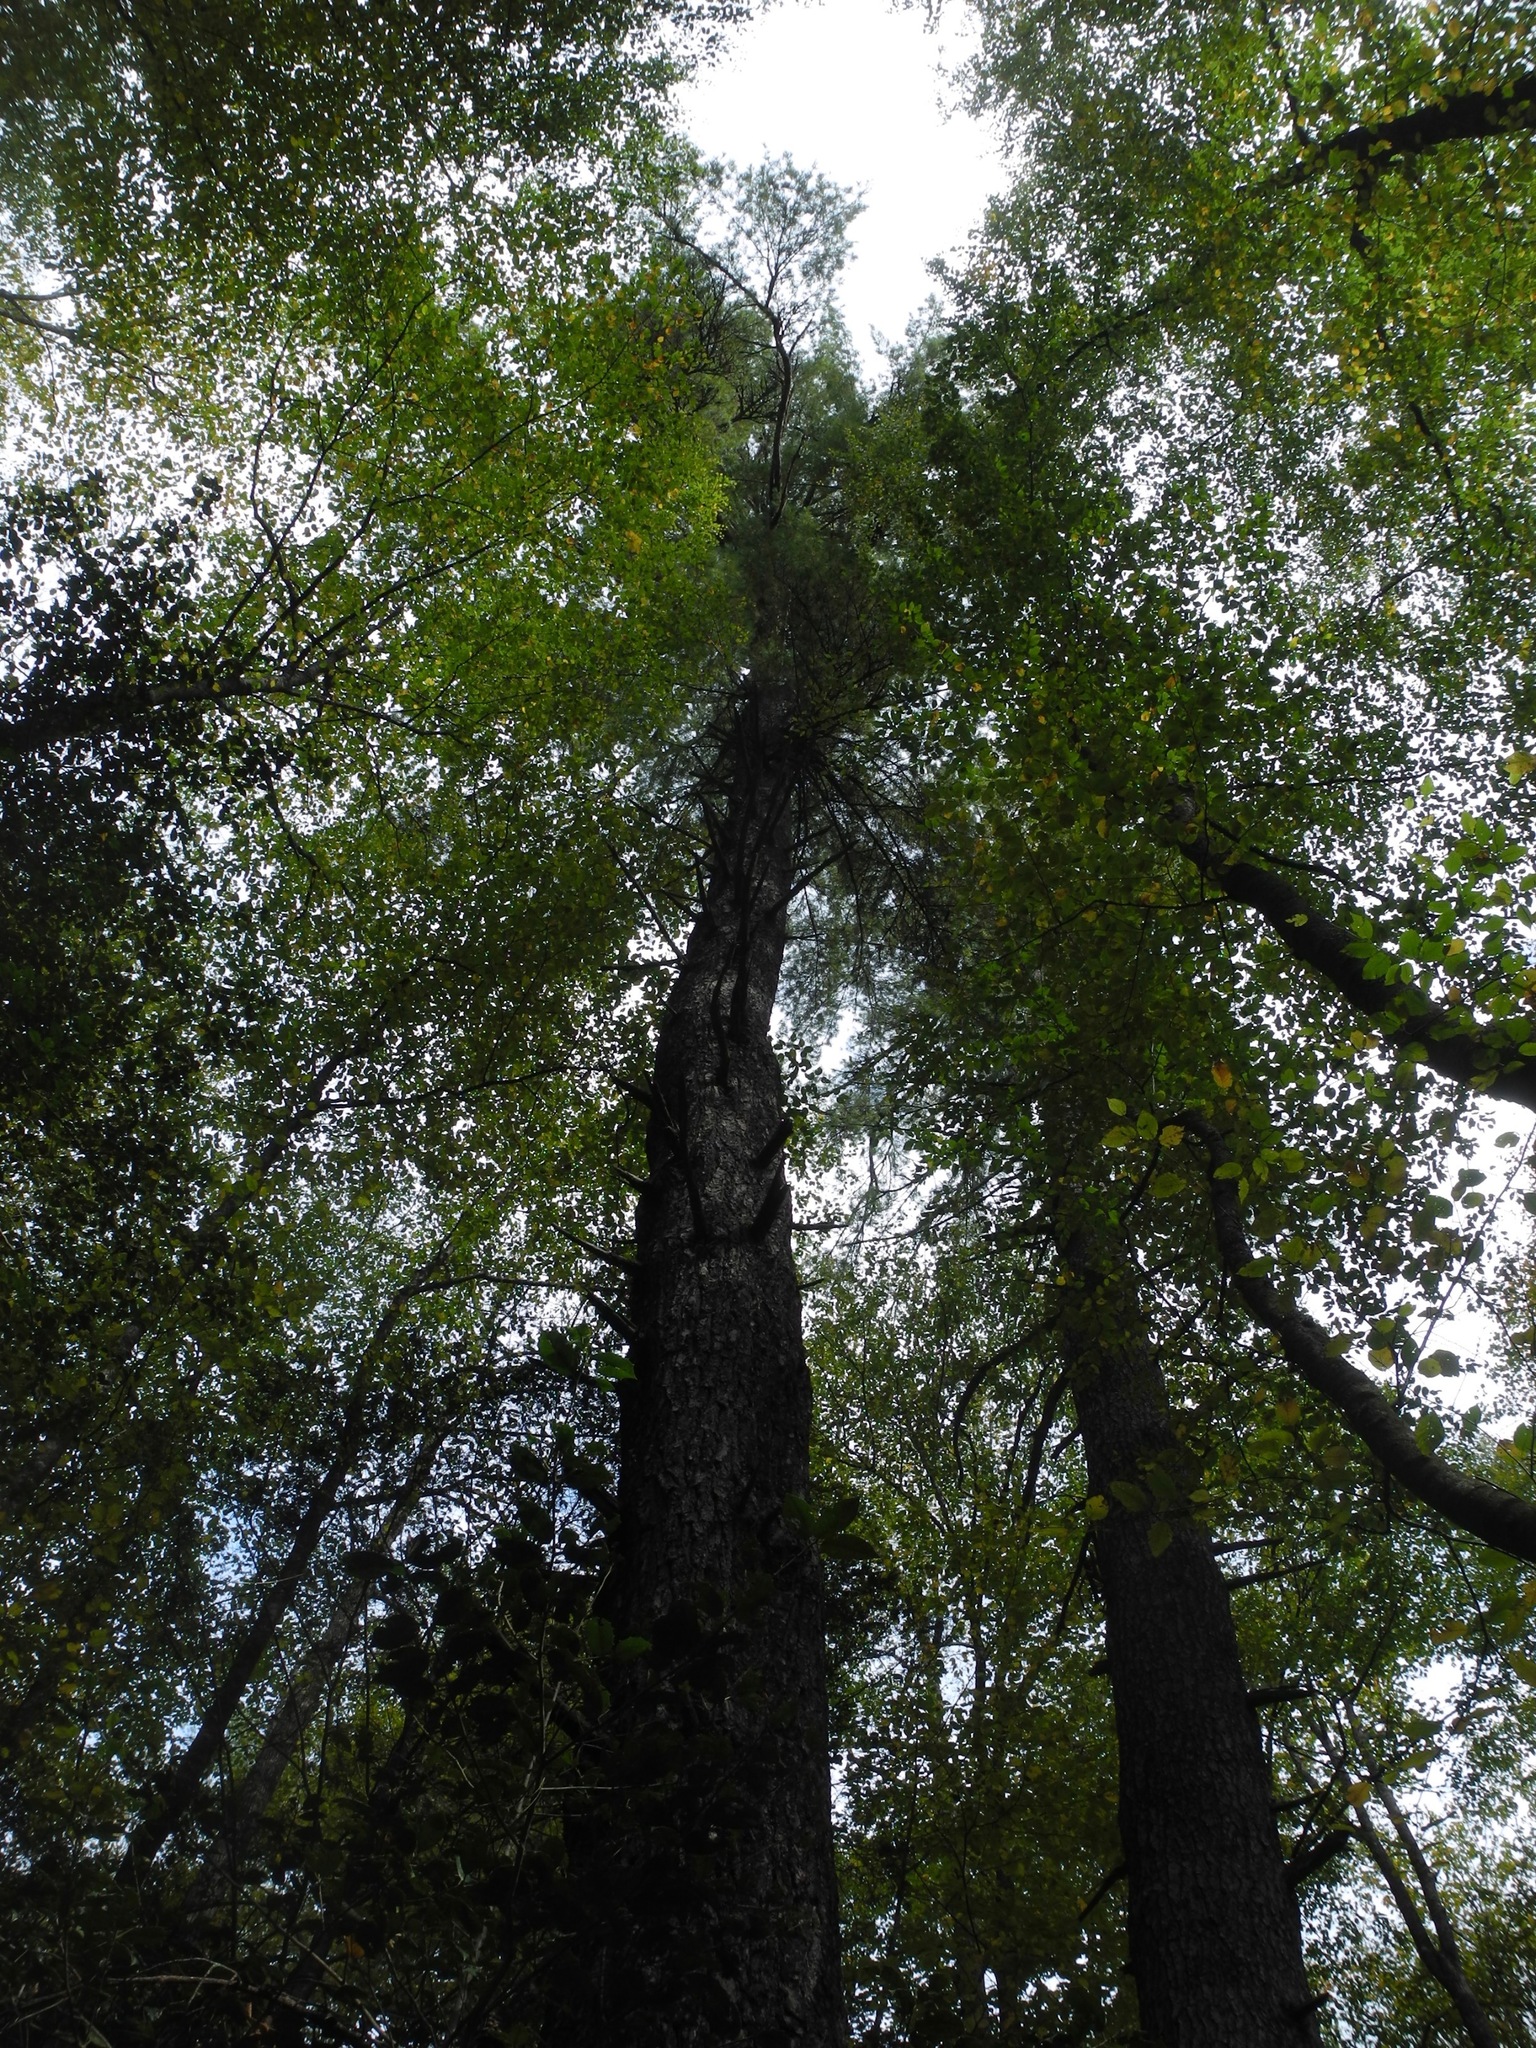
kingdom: Plantae
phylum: Tracheophyta
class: Pinopsida
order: Pinales
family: Pinaceae
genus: Pinus
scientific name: Pinus virginiana
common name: Scrub pine
